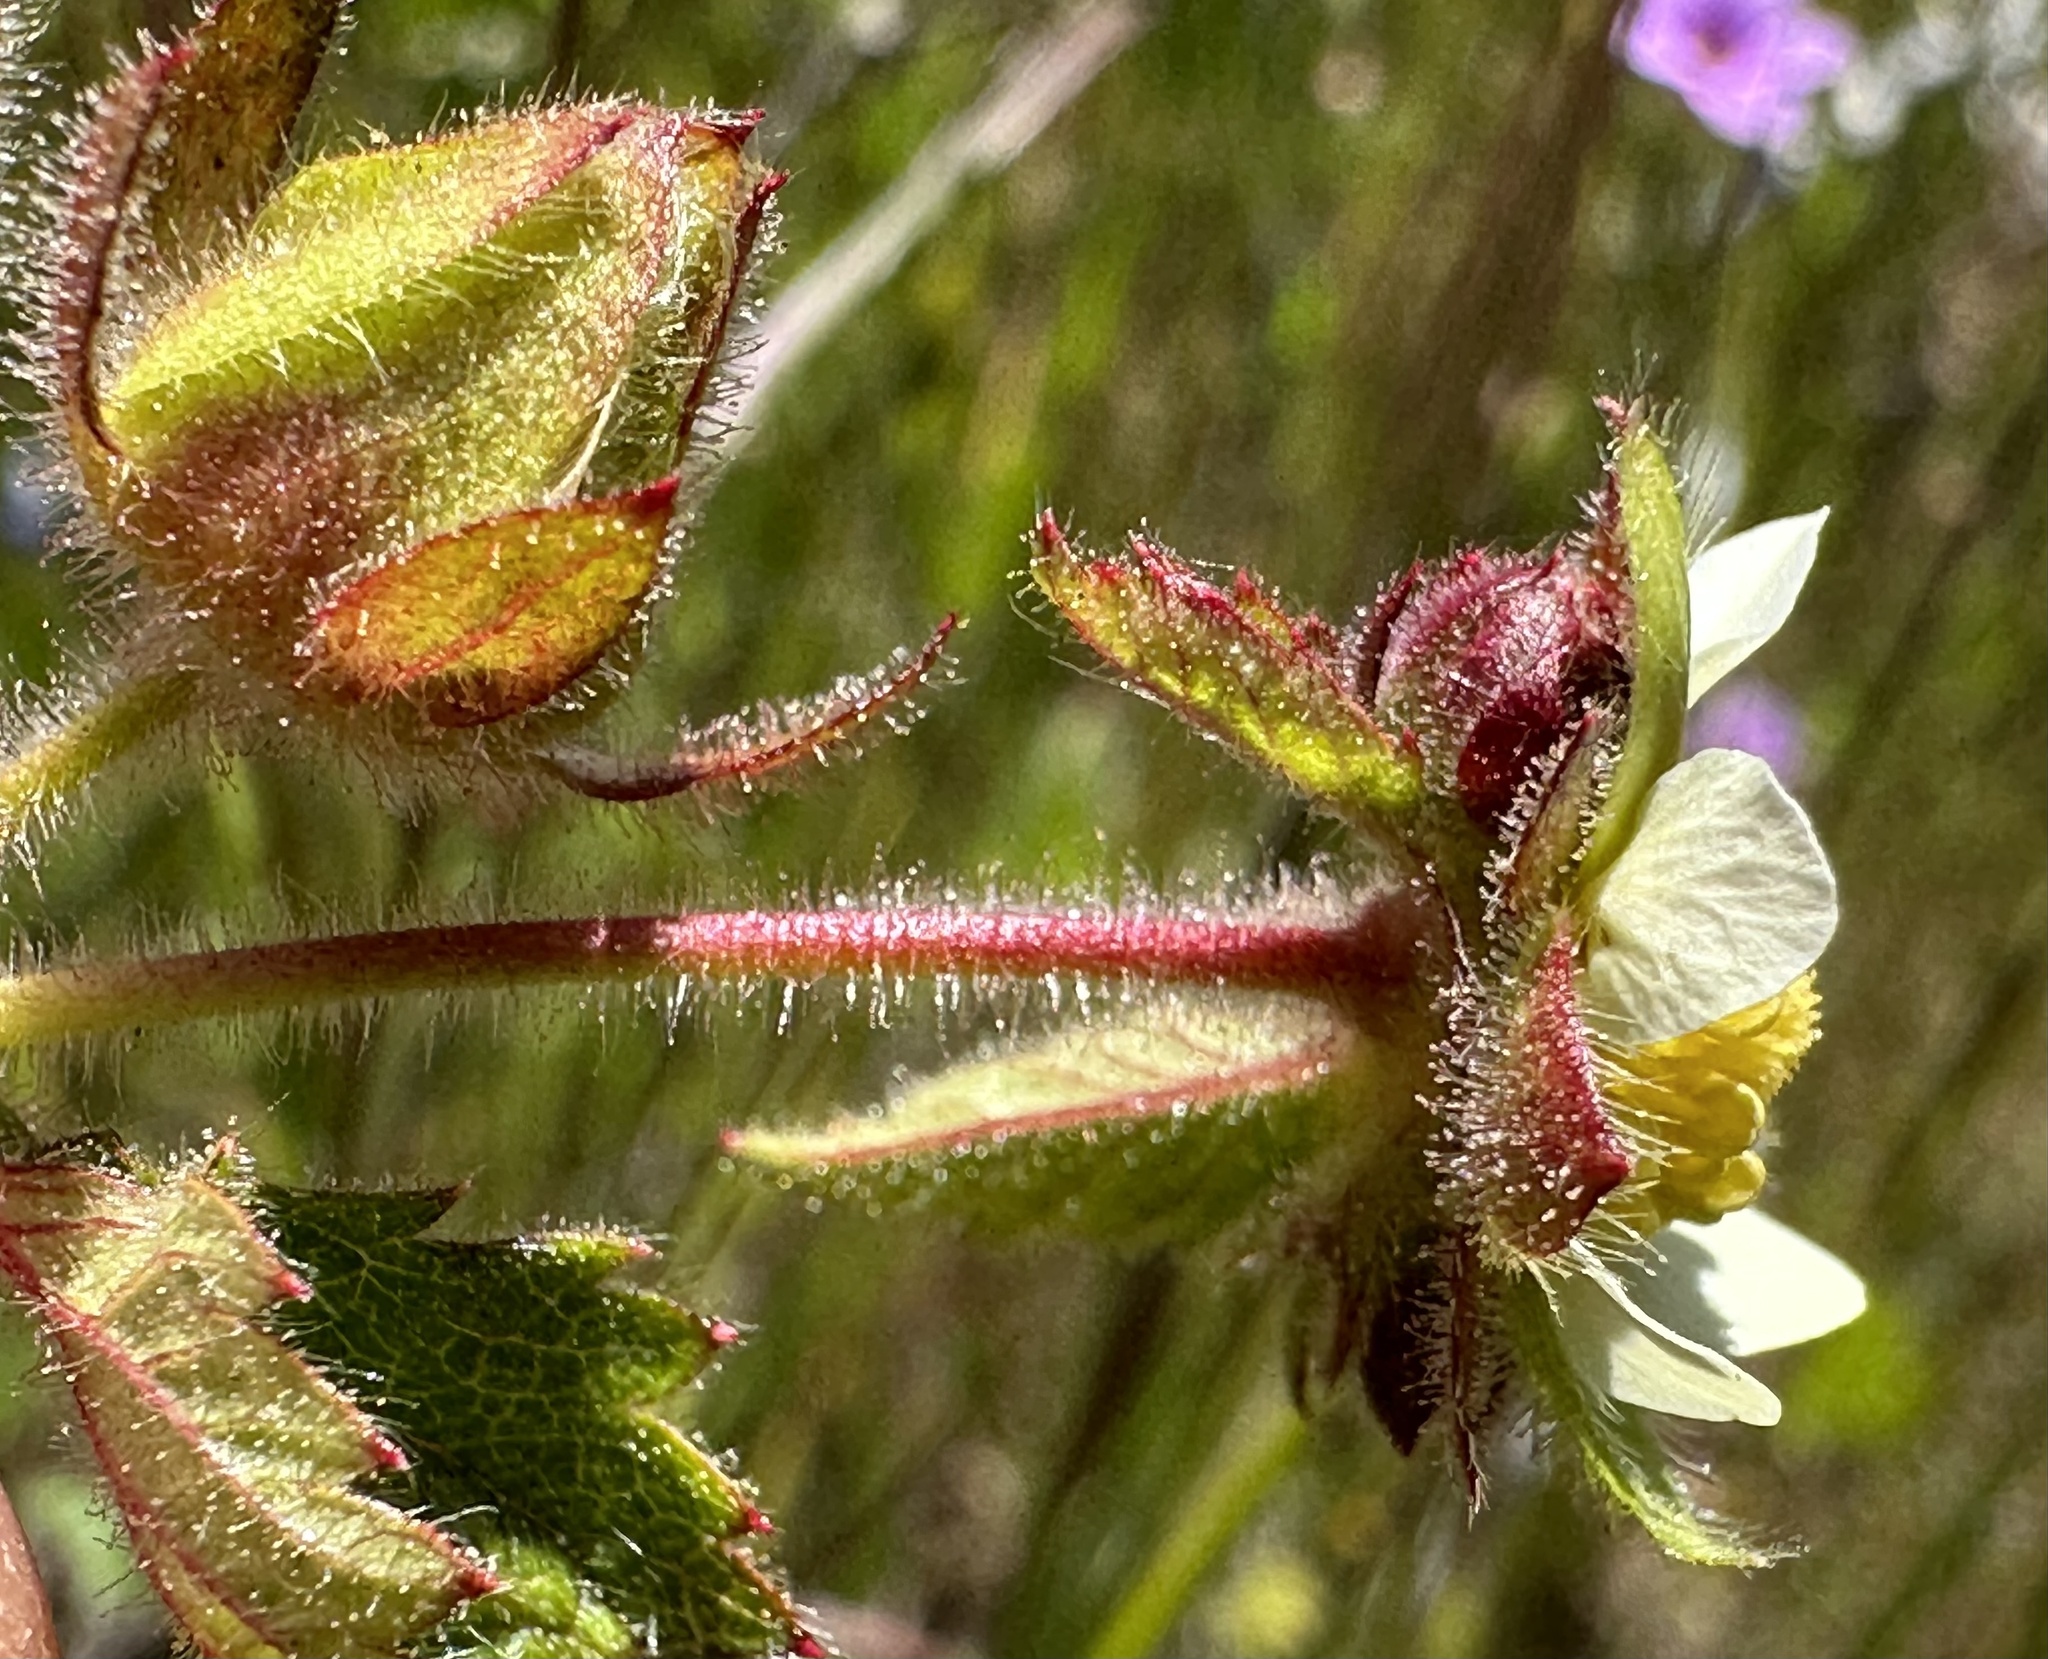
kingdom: Plantae
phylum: Tracheophyta
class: Magnoliopsida
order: Rosales
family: Rosaceae
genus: Drymocallis
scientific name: Drymocallis glandulosa
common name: Sticky cinquefoil
